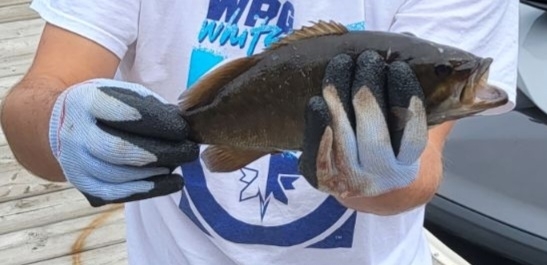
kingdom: Animalia
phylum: Chordata
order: Perciformes
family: Centrarchidae
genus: Micropterus
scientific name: Micropterus dolomieu
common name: Smallmouth bass
